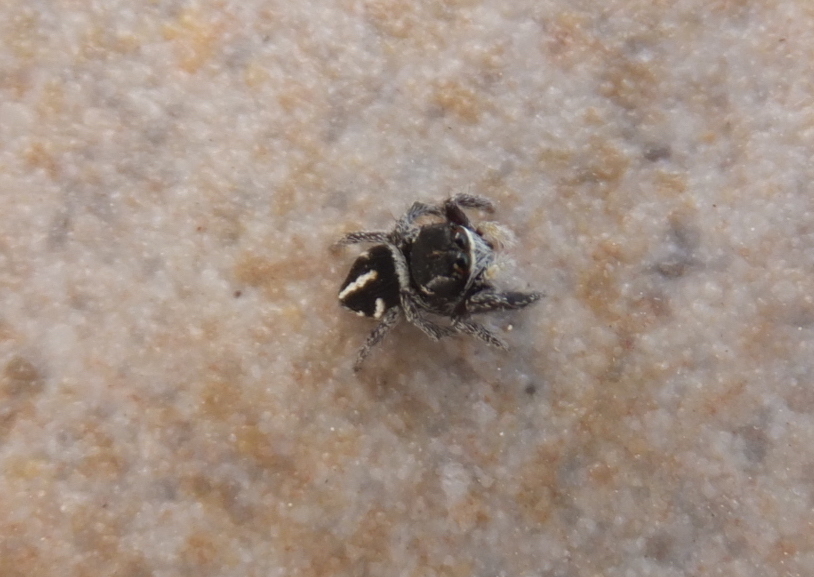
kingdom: Animalia
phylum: Arthropoda
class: Arachnida
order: Araneae
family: Salticidae
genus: Pellenes
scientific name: Pellenes nigrociliatus
